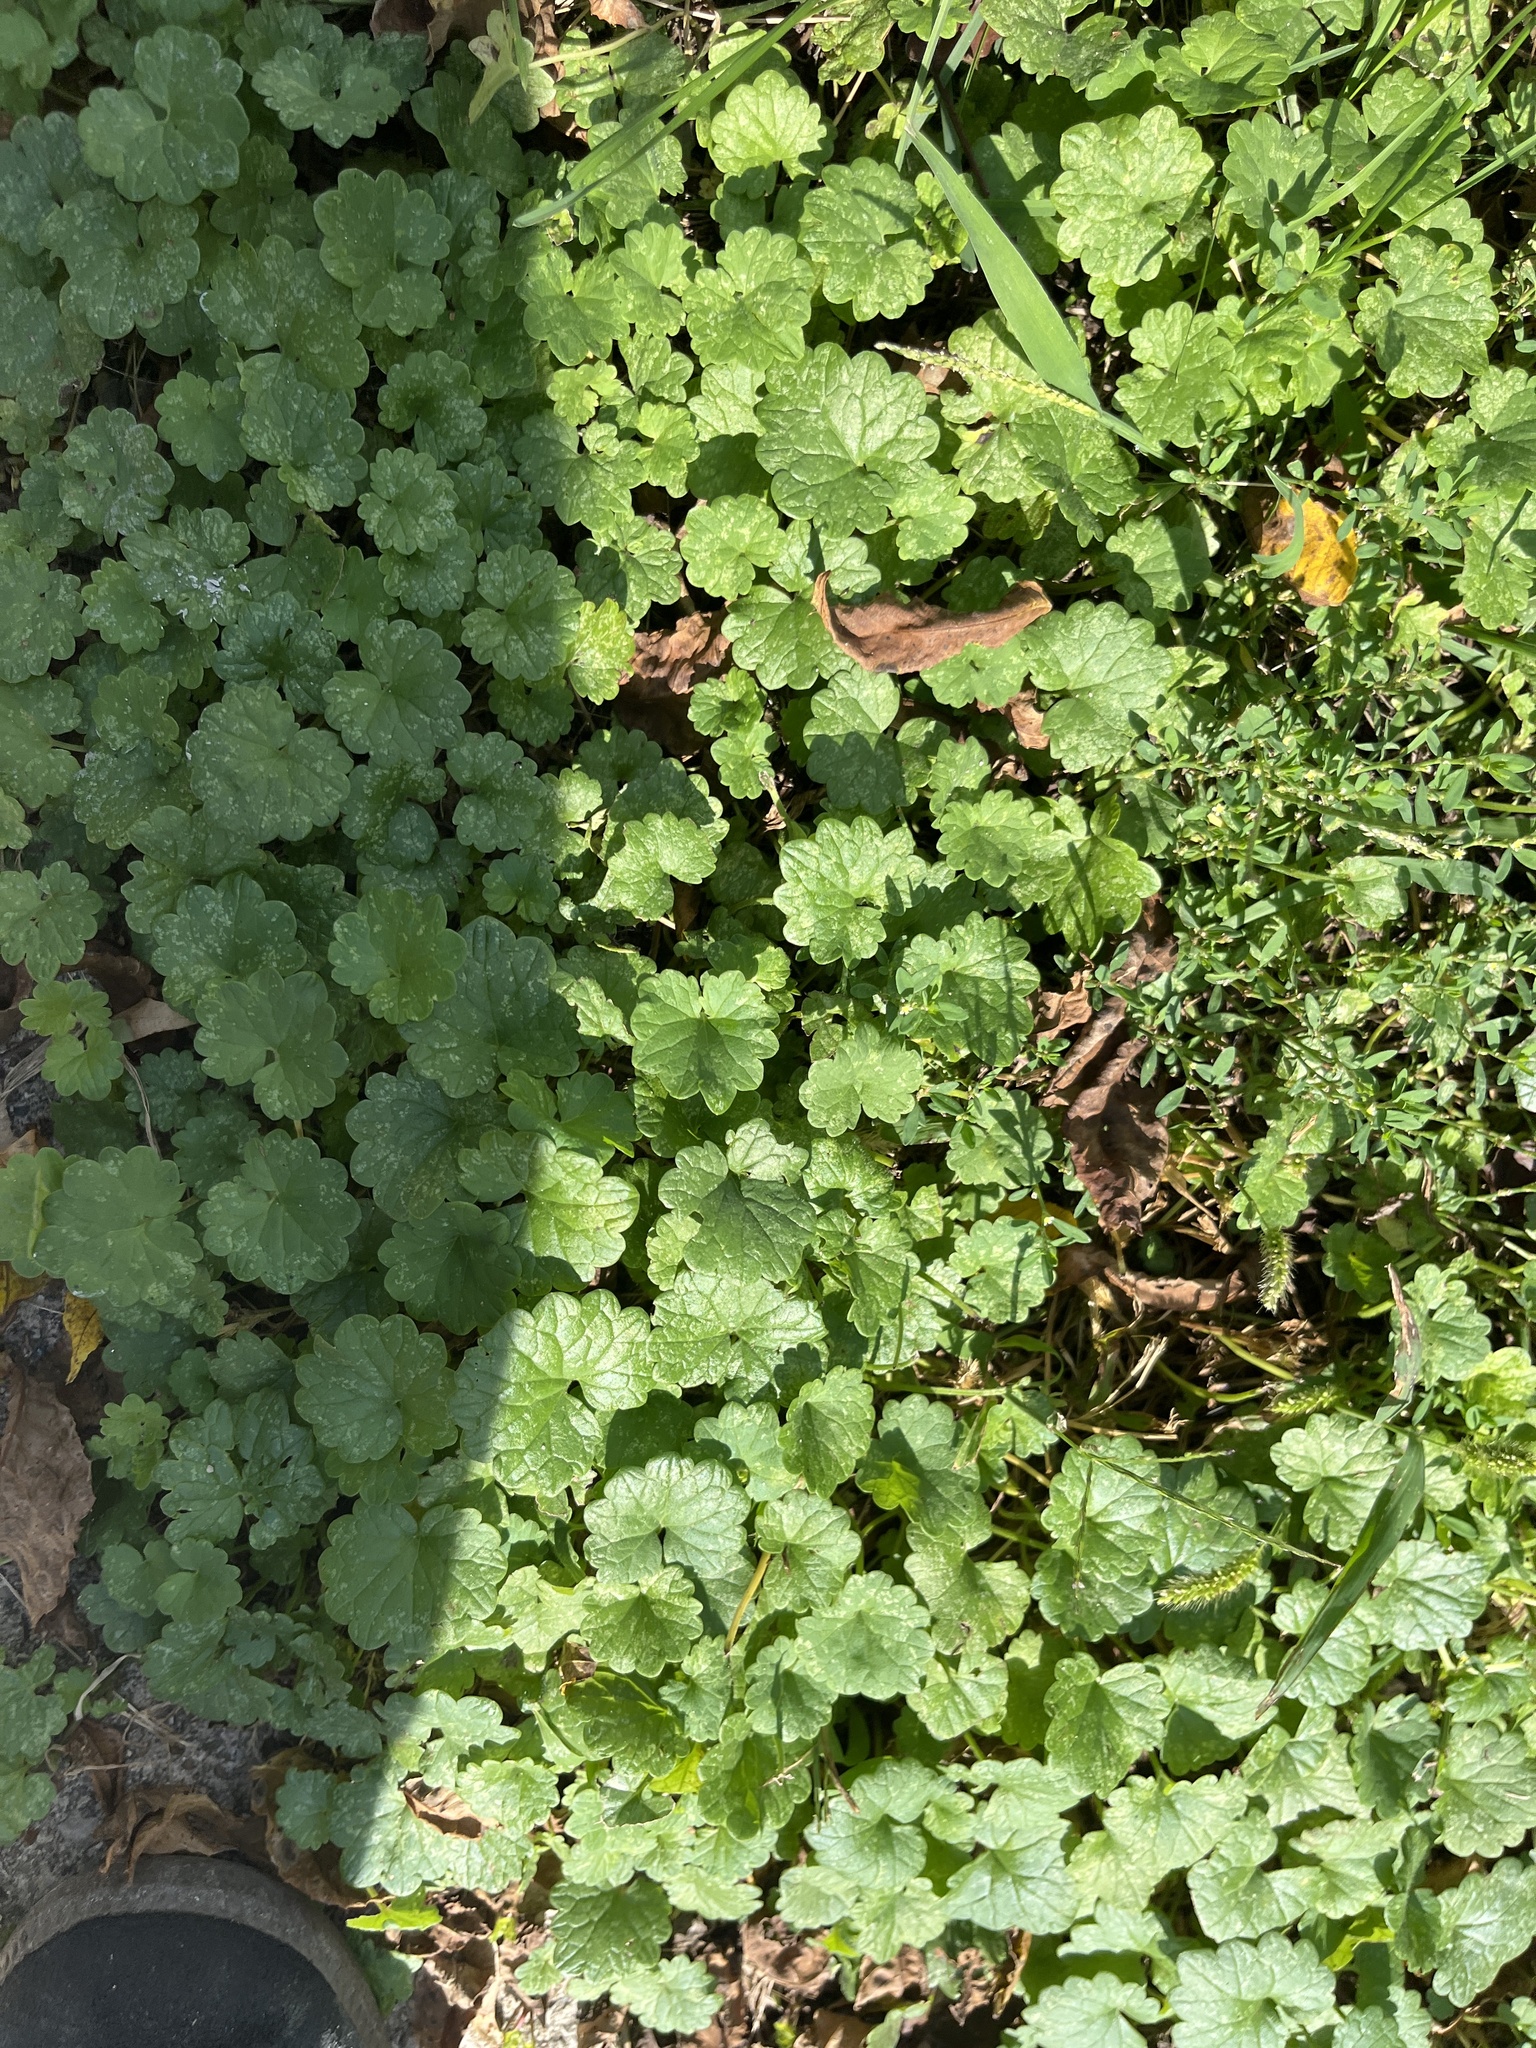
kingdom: Plantae
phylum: Tracheophyta
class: Magnoliopsida
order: Lamiales
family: Lamiaceae
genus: Glechoma
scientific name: Glechoma hederacea
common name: Ground ivy
